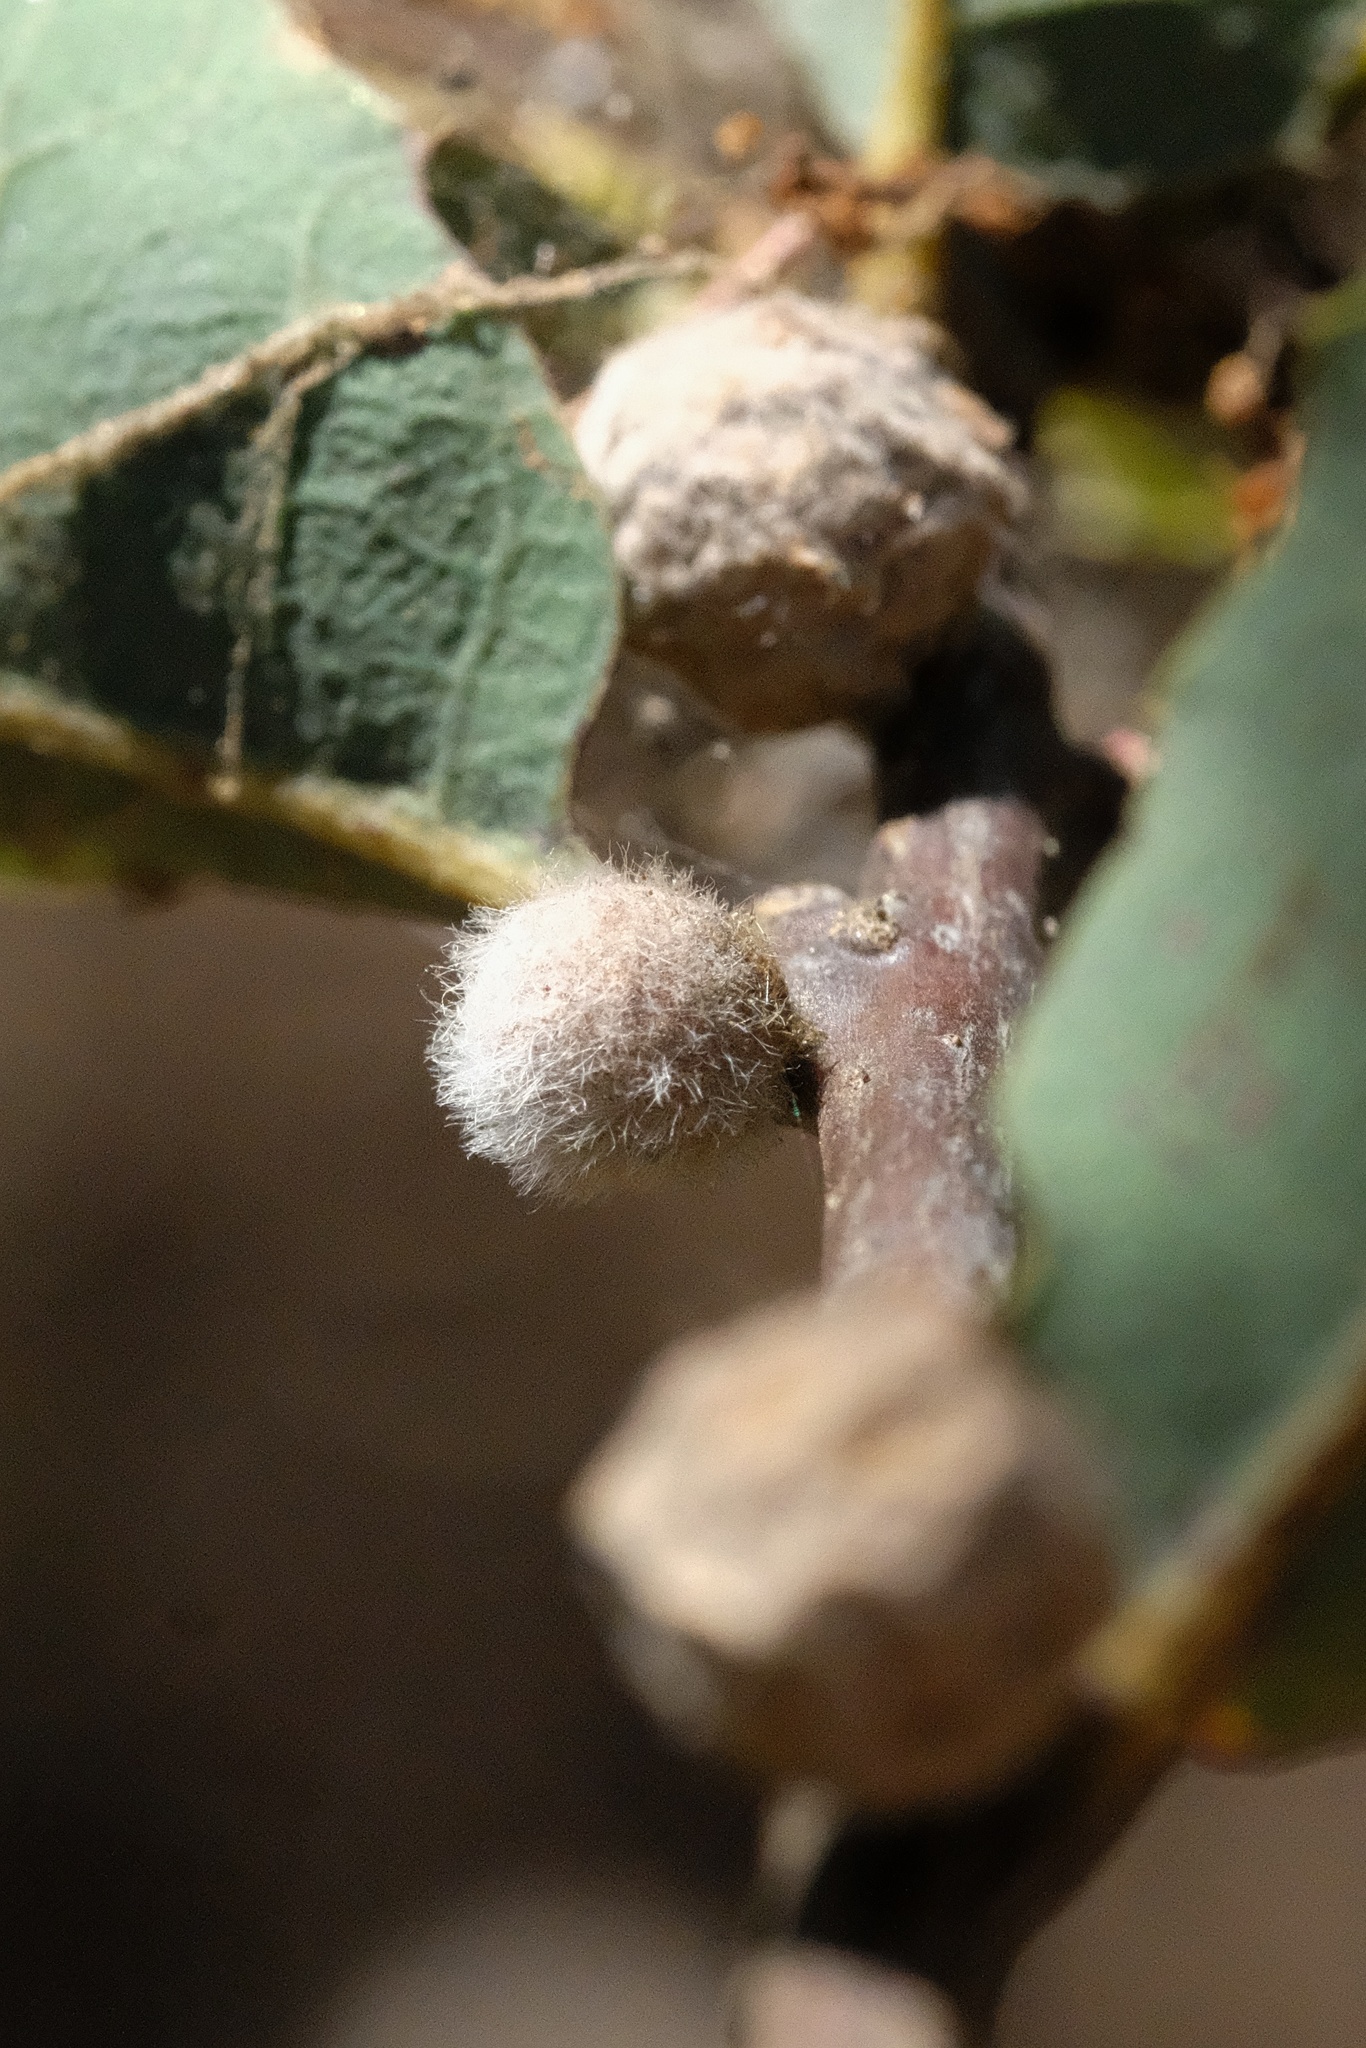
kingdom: Animalia
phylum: Arthropoda
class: Insecta
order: Hymenoptera
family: Cynipidae
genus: Burnettweldia
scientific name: Burnettweldia
